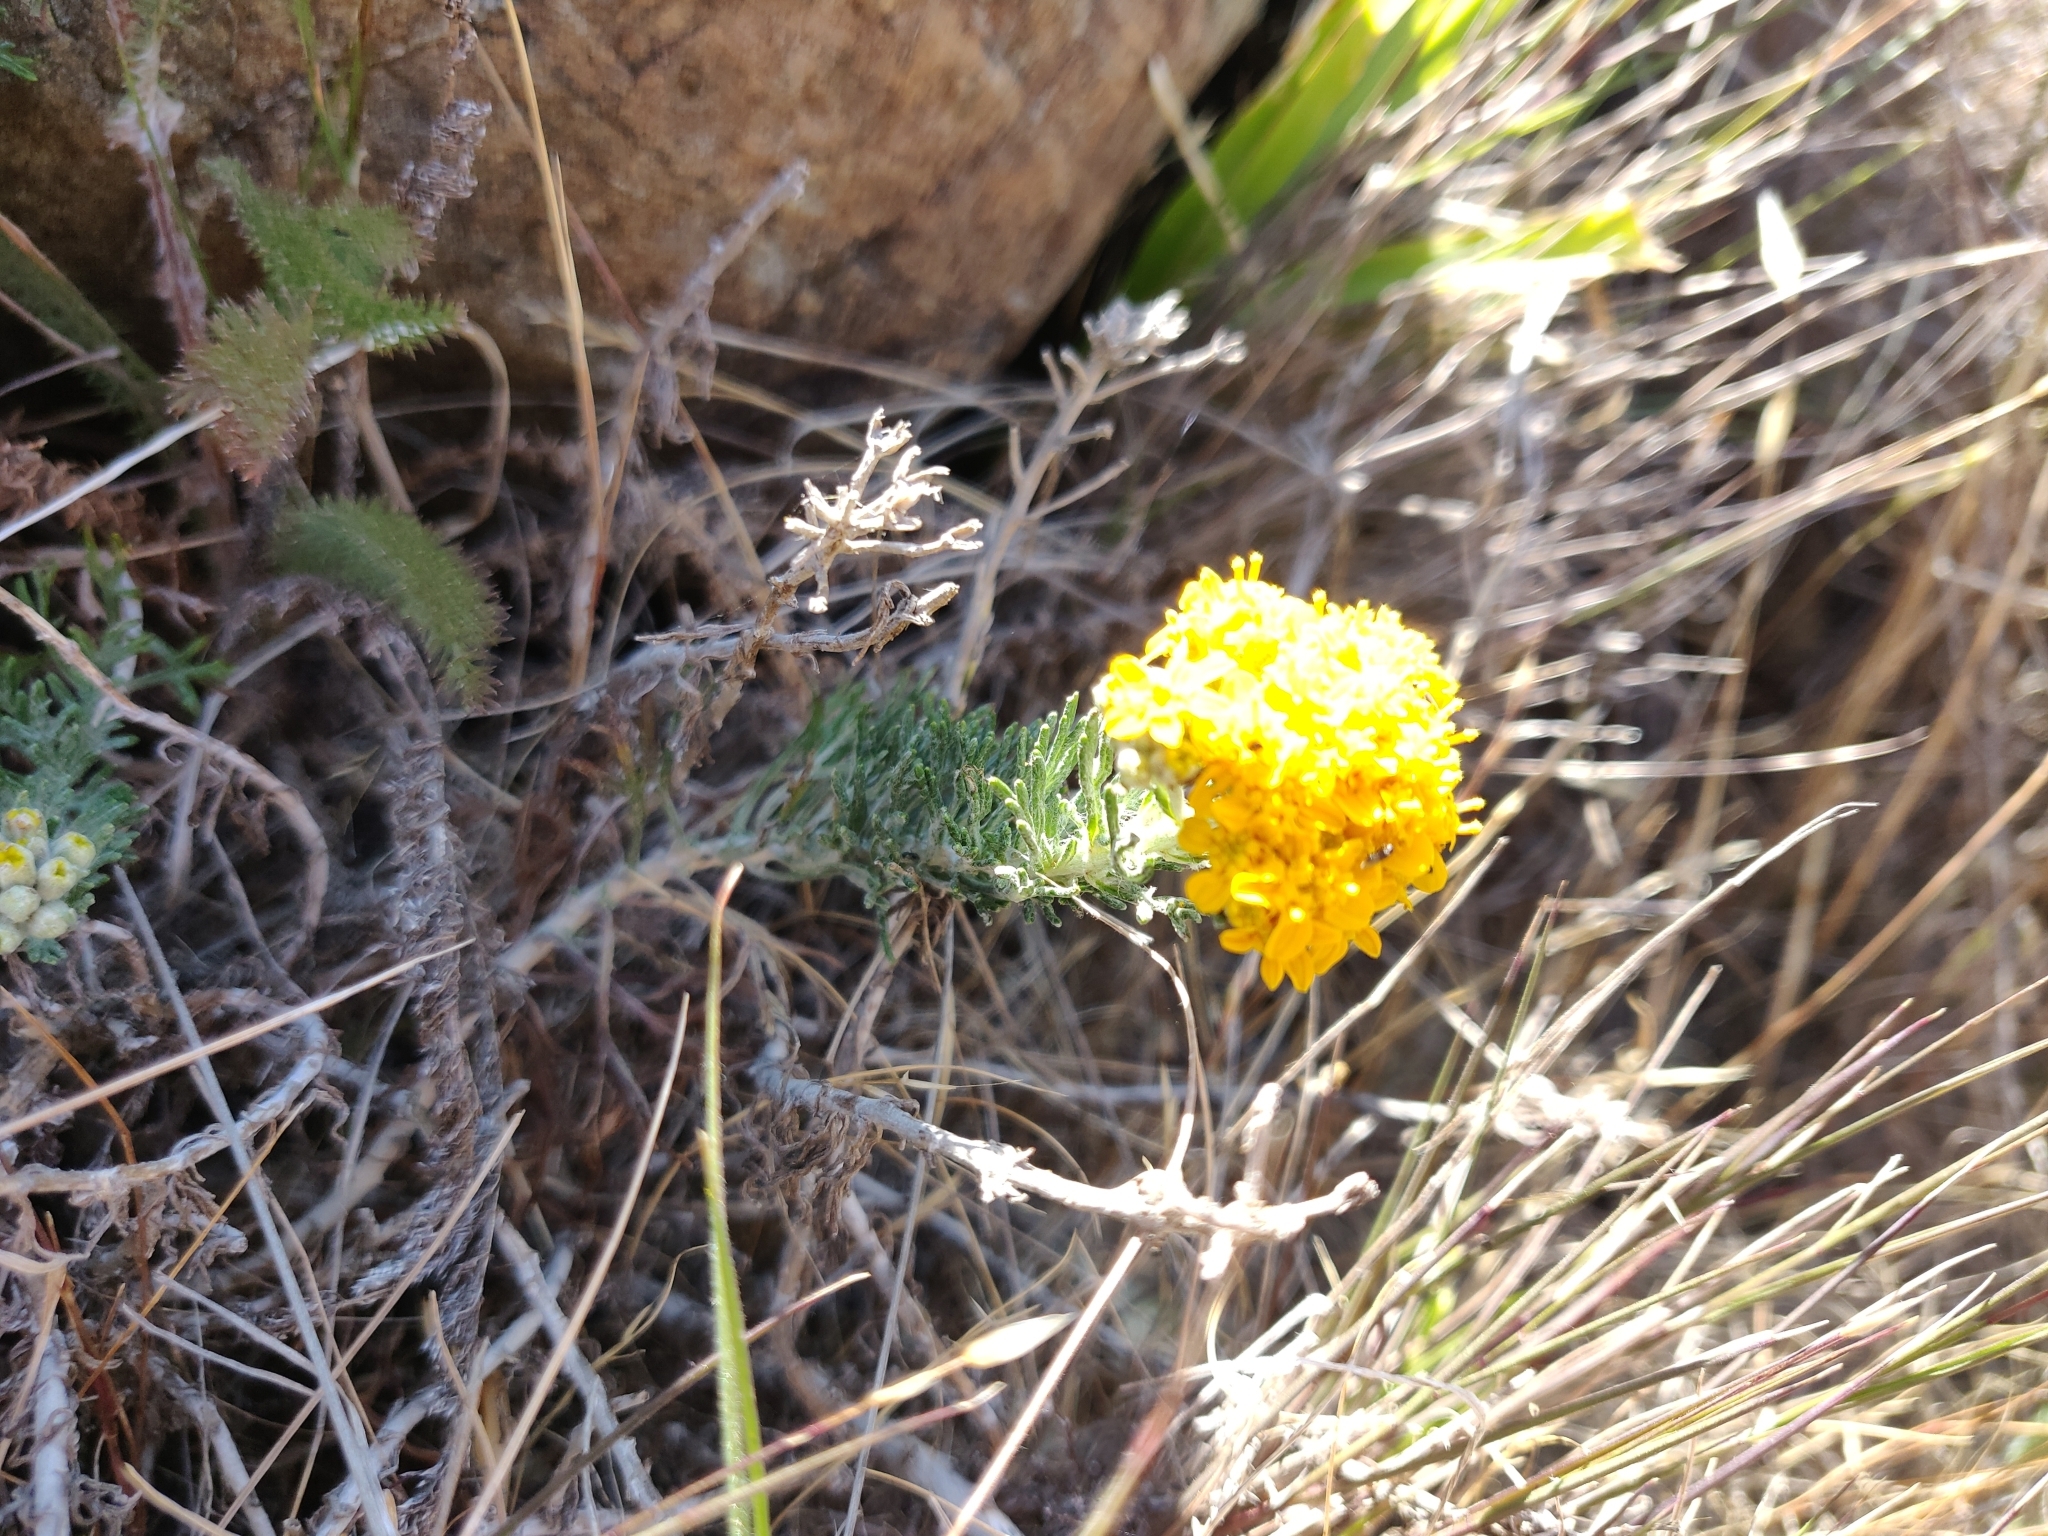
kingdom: Plantae
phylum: Tracheophyta
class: Magnoliopsida
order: Asterales
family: Asteraceae
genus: Eriophyllum
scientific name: Eriophyllum confertiflorum
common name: Golden-yarrow
